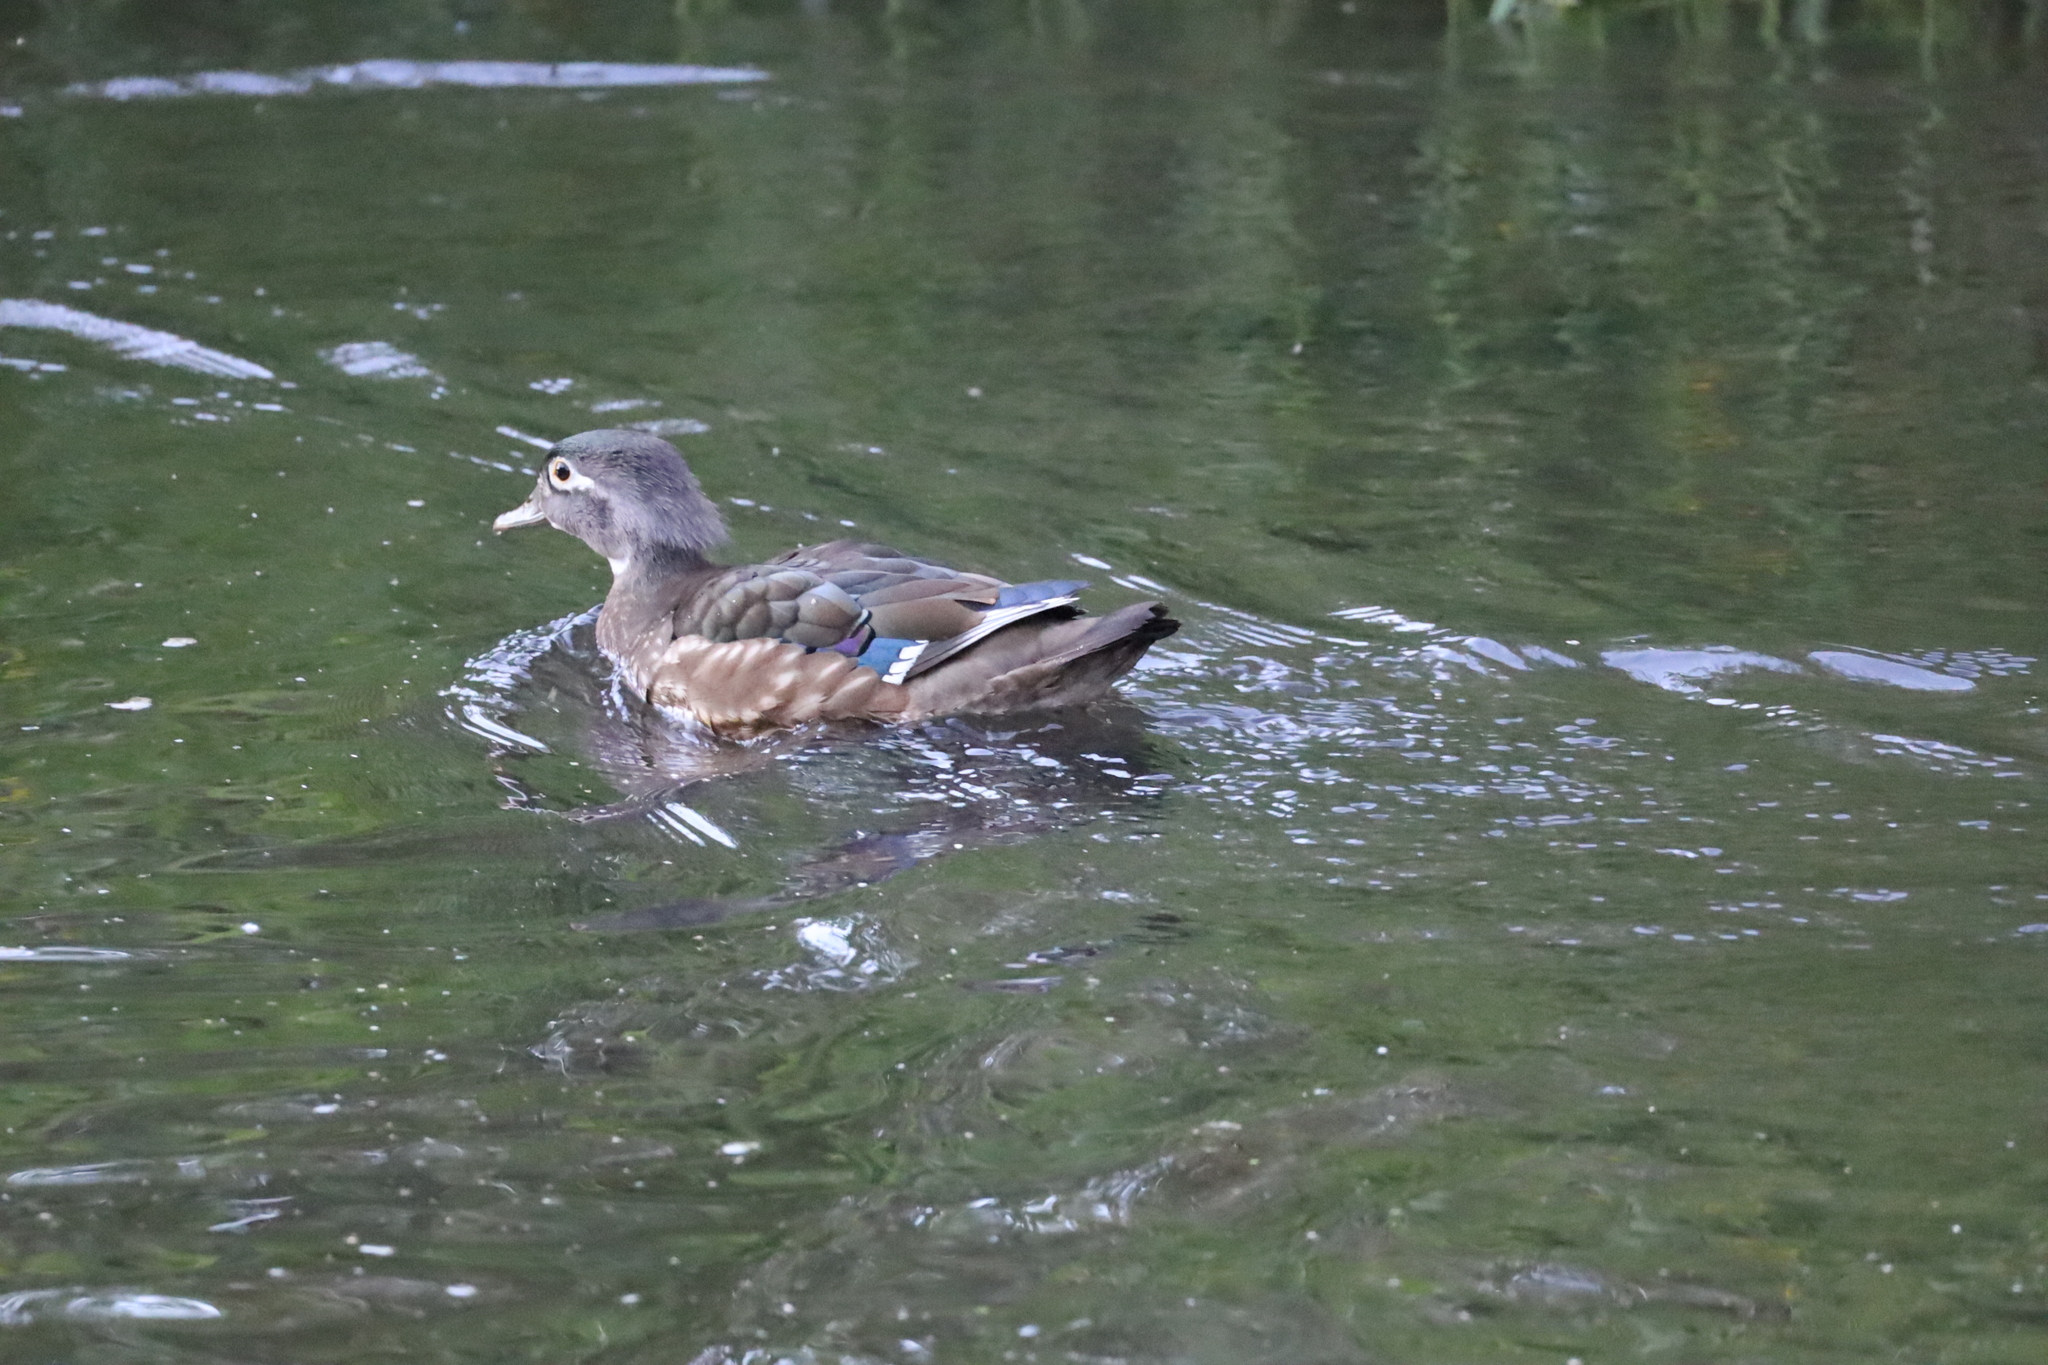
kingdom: Animalia
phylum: Chordata
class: Aves
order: Anseriformes
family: Anatidae
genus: Aix
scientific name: Aix sponsa
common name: Wood duck
